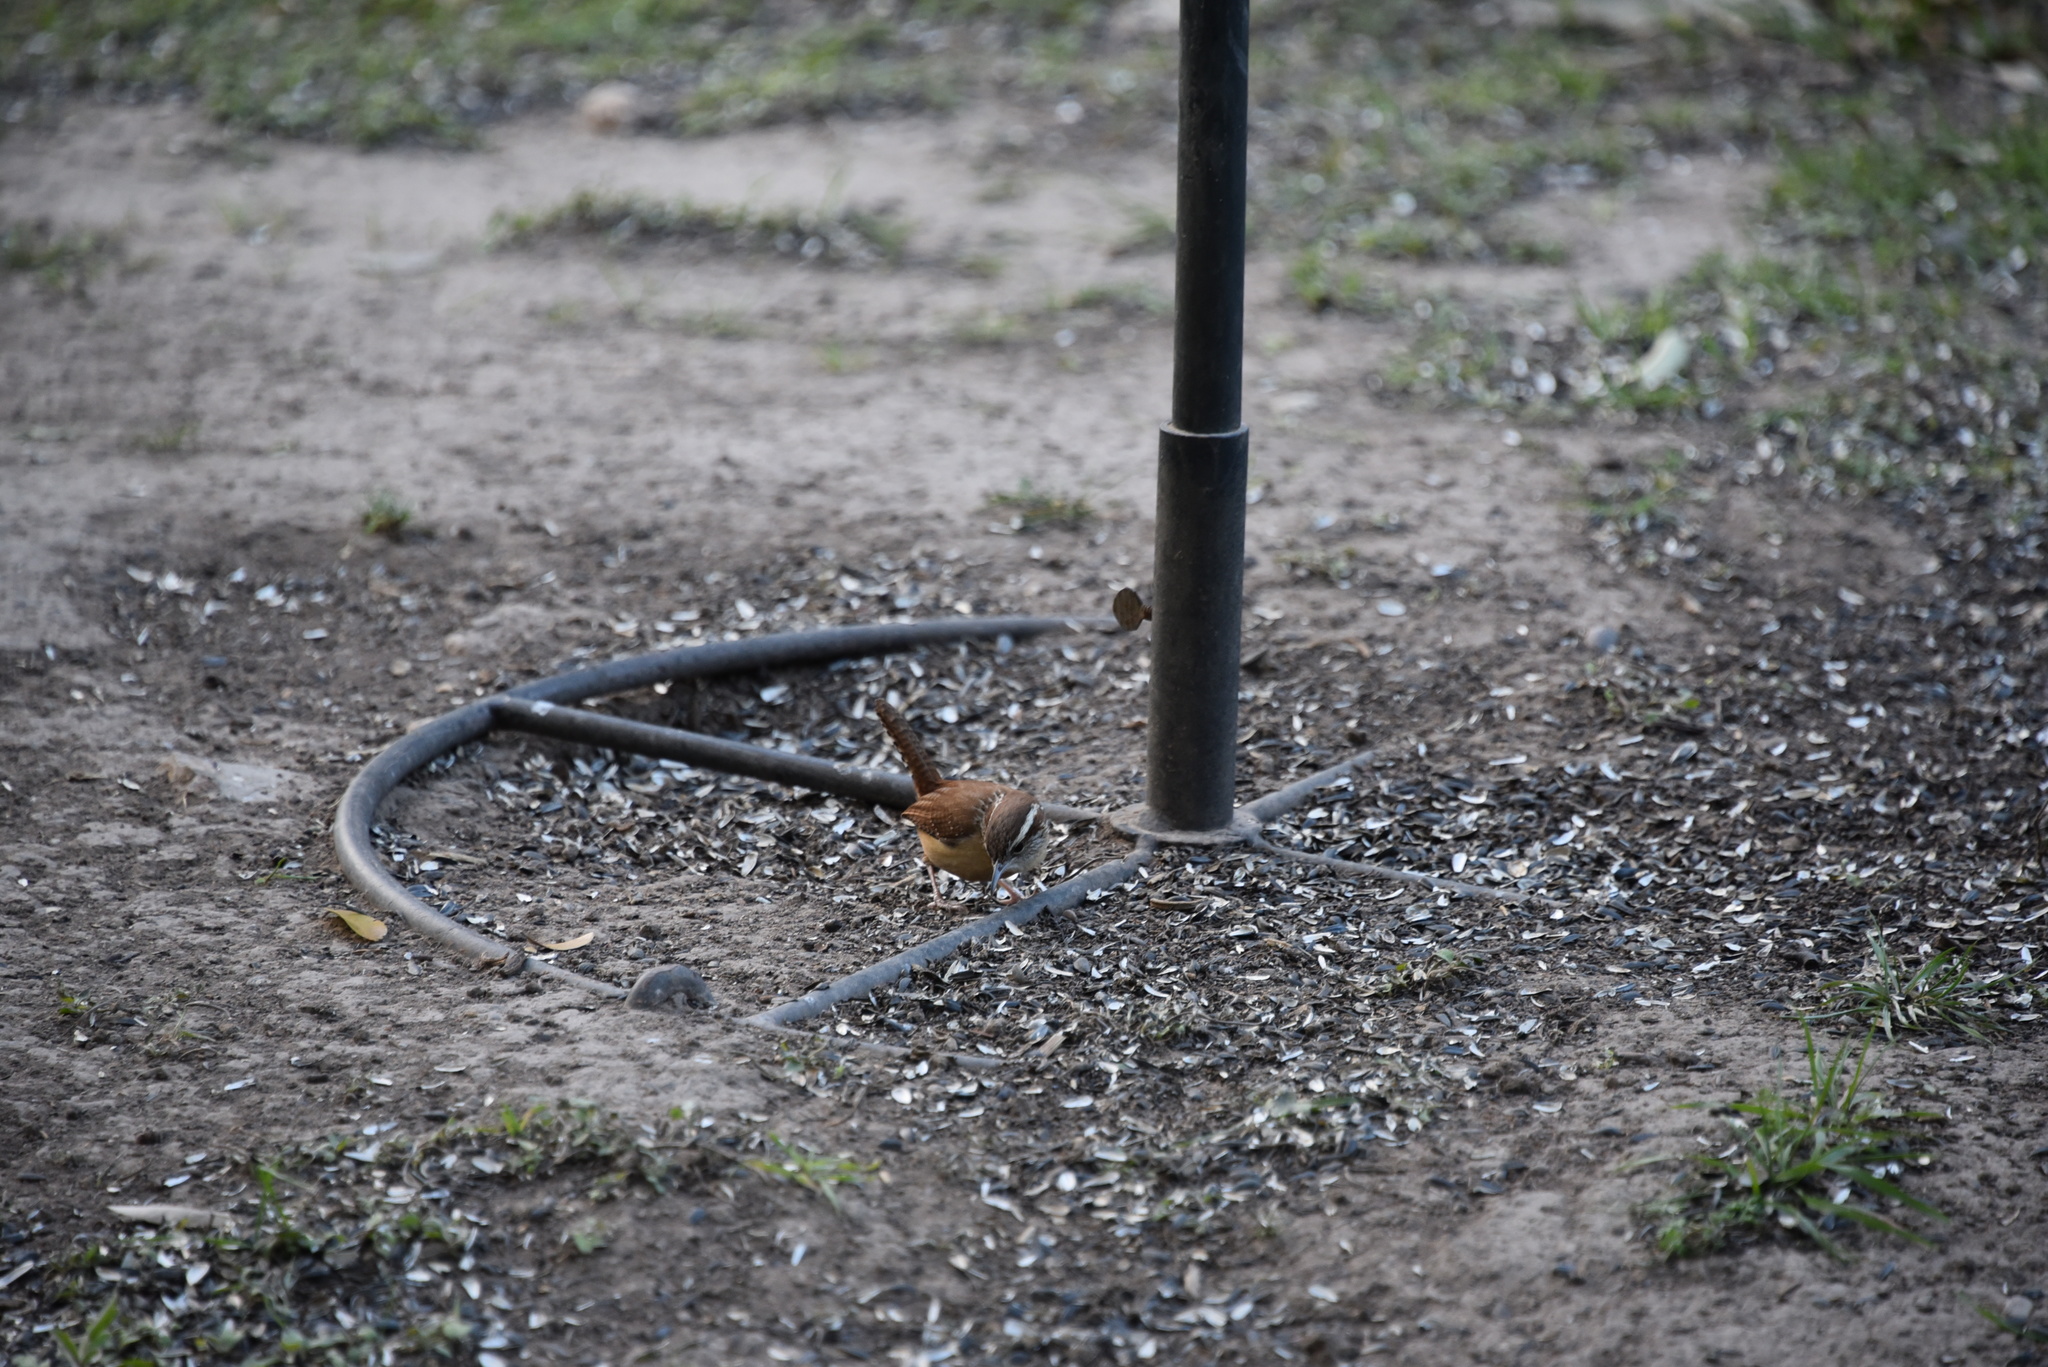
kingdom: Animalia
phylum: Chordata
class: Aves
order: Passeriformes
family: Troglodytidae
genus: Thryothorus
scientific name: Thryothorus ludovicianus
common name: Carolina wren
